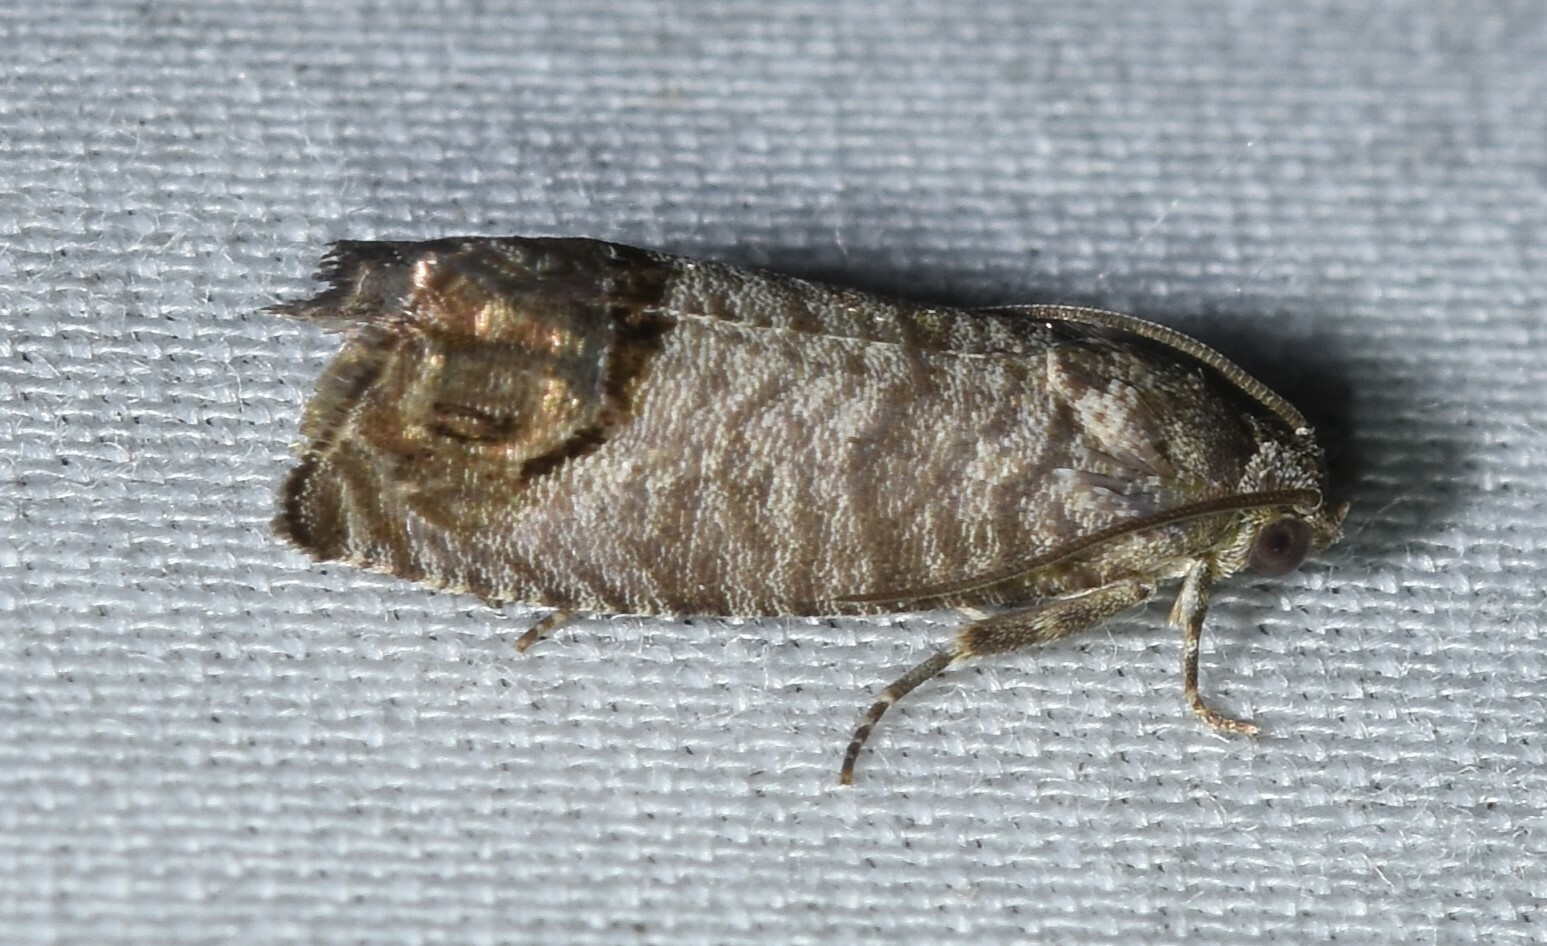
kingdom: Animalia
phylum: Arthropoda
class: Insecta
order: Lepidoptera
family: Tortricidae
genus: Cydia
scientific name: Cydia pomonella
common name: Codling moth
